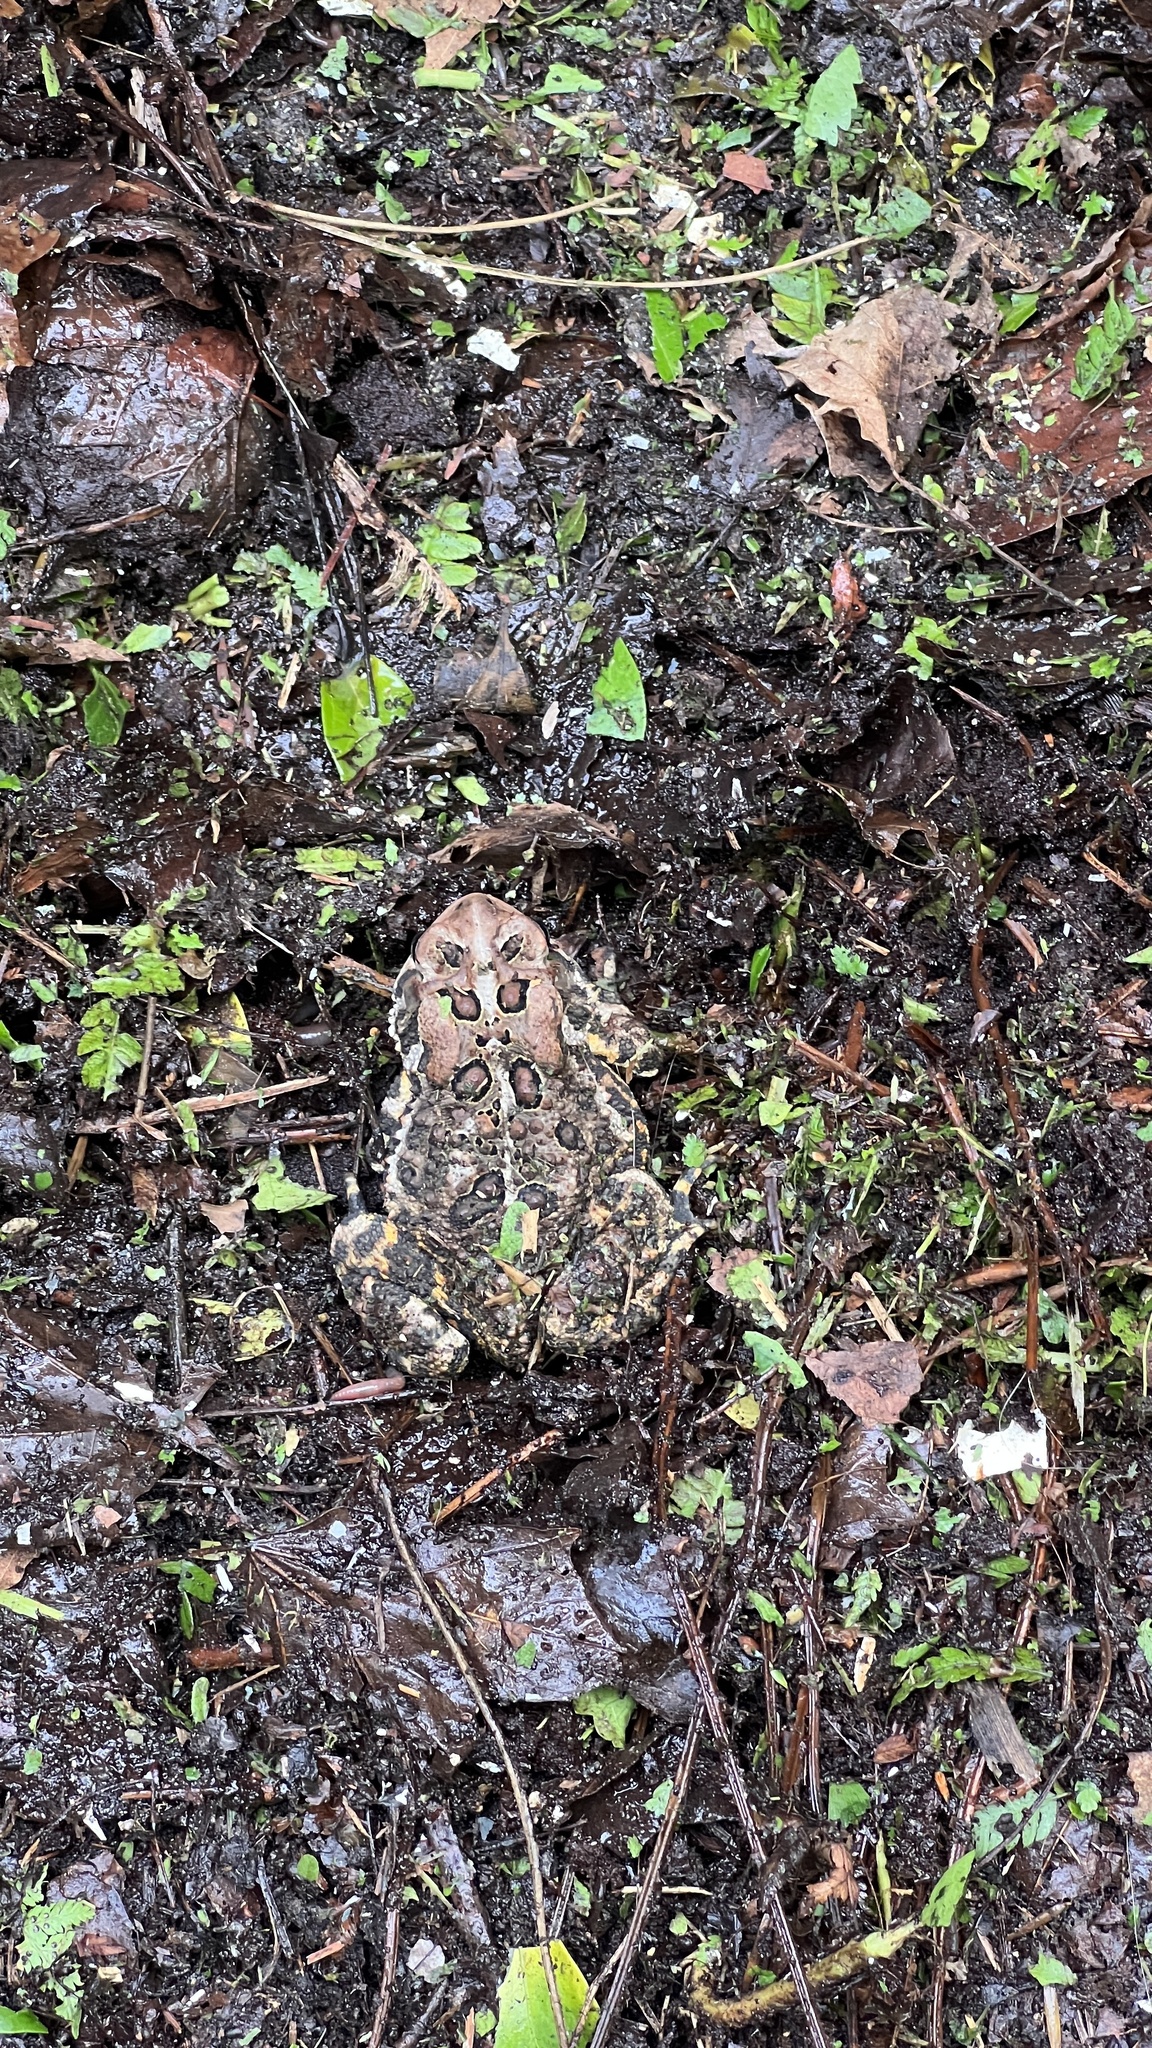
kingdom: Animalia
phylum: Chordata
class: Amphibia
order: Anura
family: Bufonidae
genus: Anaxyrus
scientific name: Anaxyrus americanus
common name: American toad
